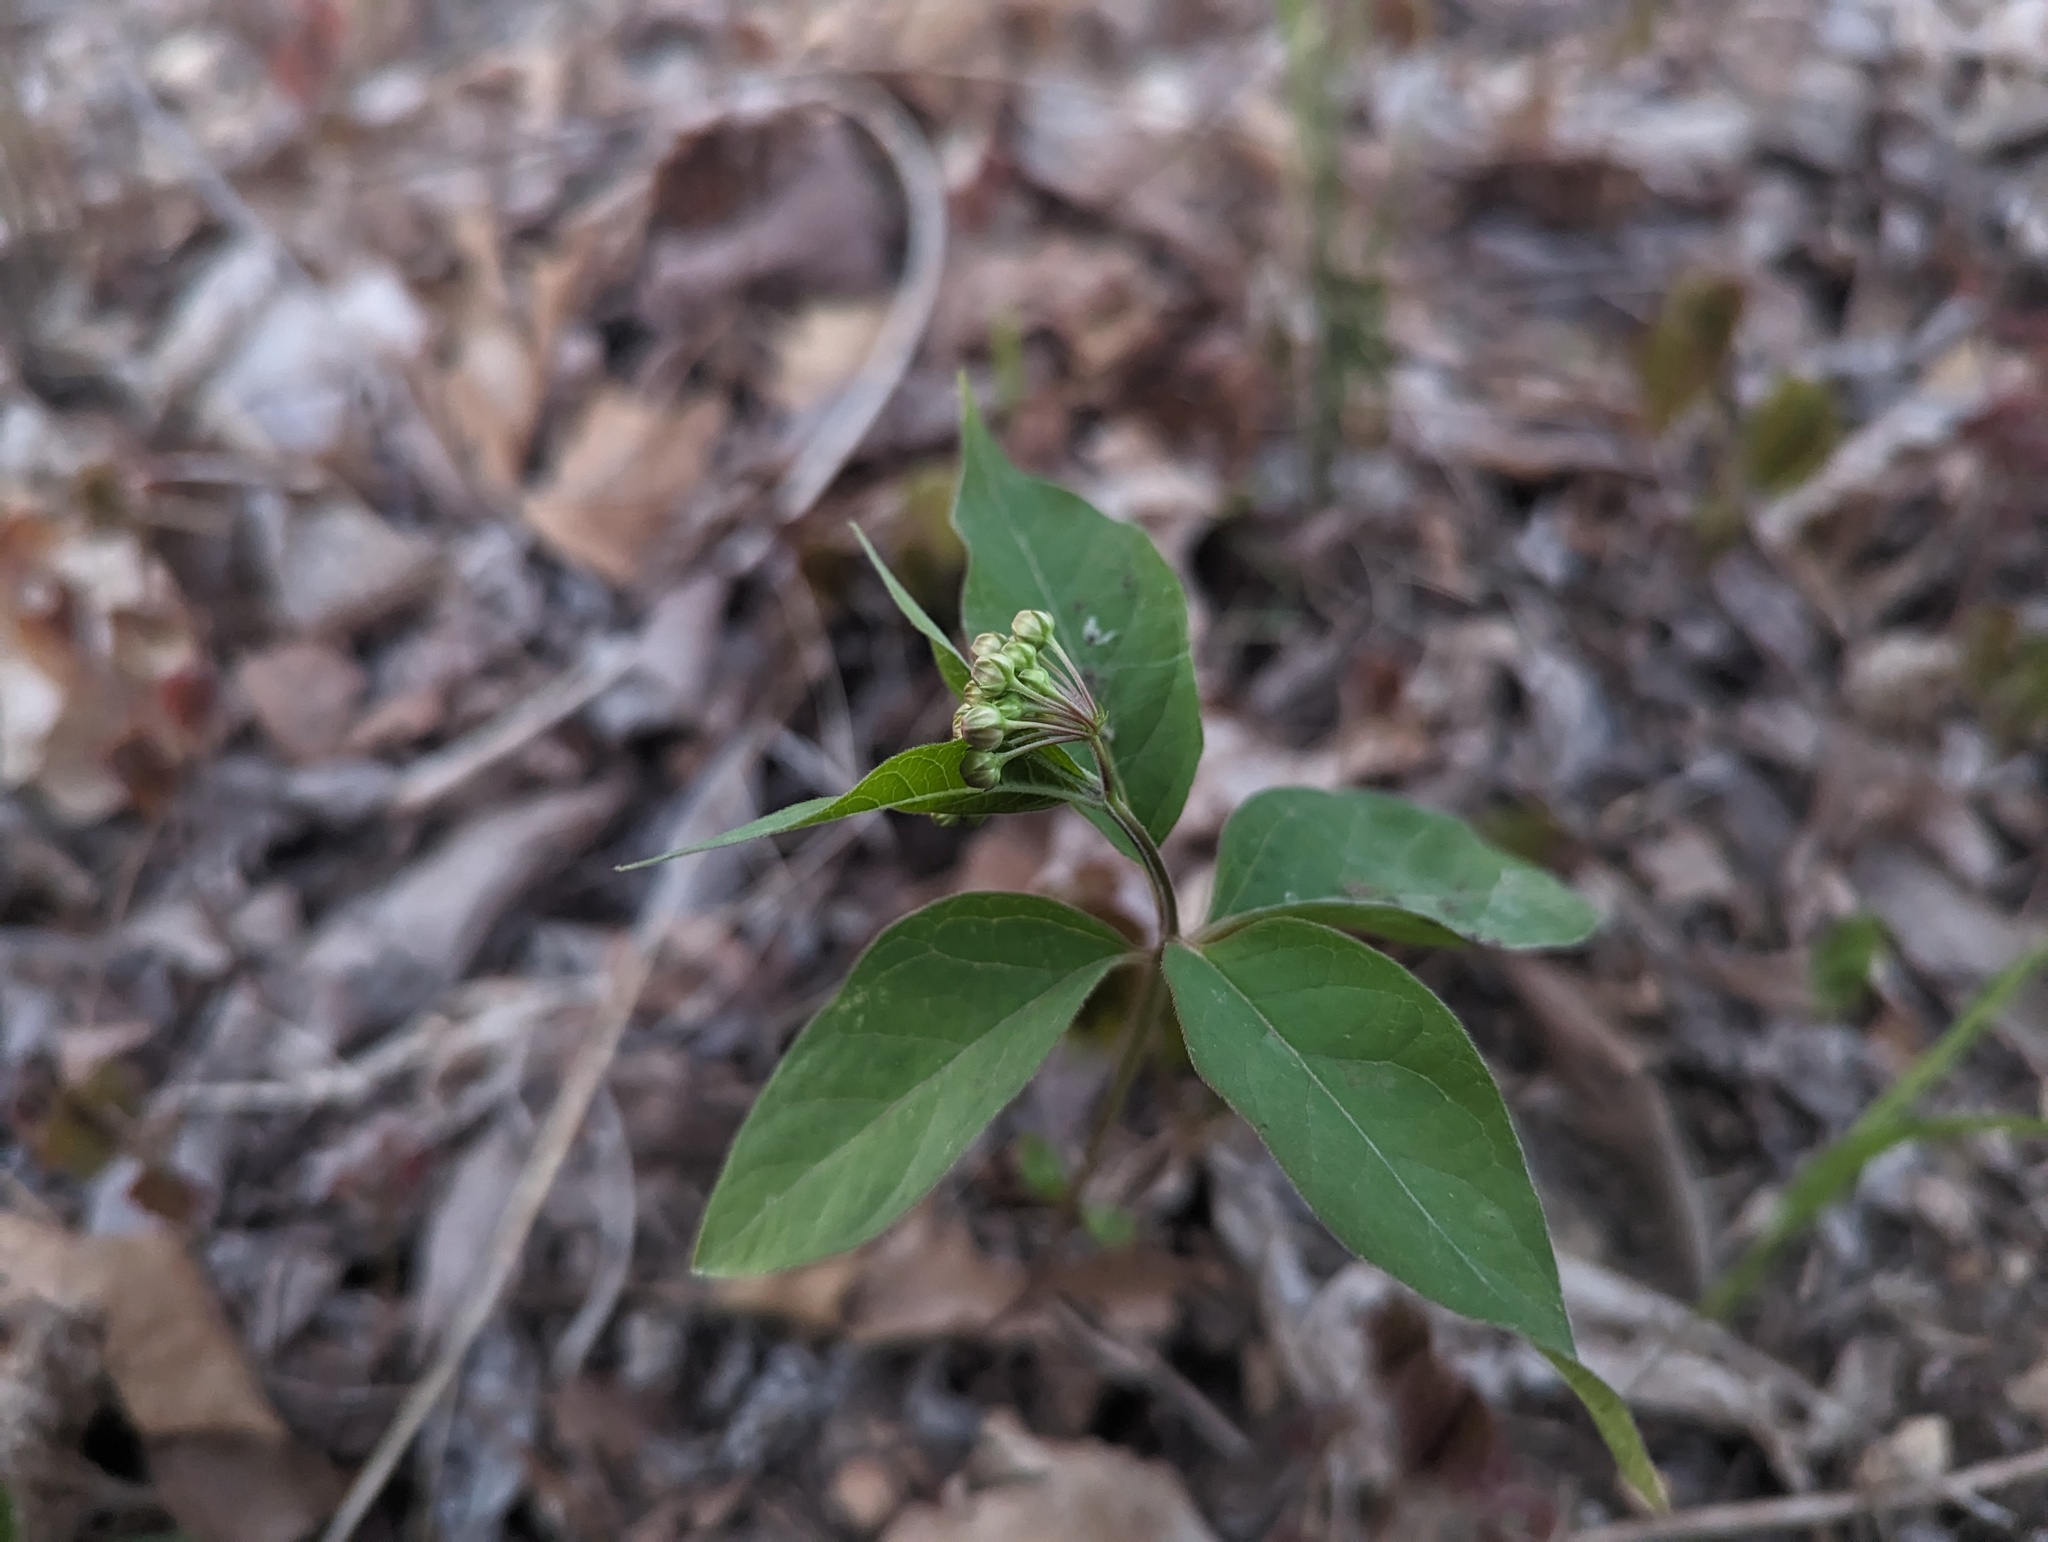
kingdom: Plantae
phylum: Tracheophyta
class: Magnoliopsida
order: Gentianales
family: Apocynaceae
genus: Asclepias
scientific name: Asclepias quadrifolia
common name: Whorled milkweed
